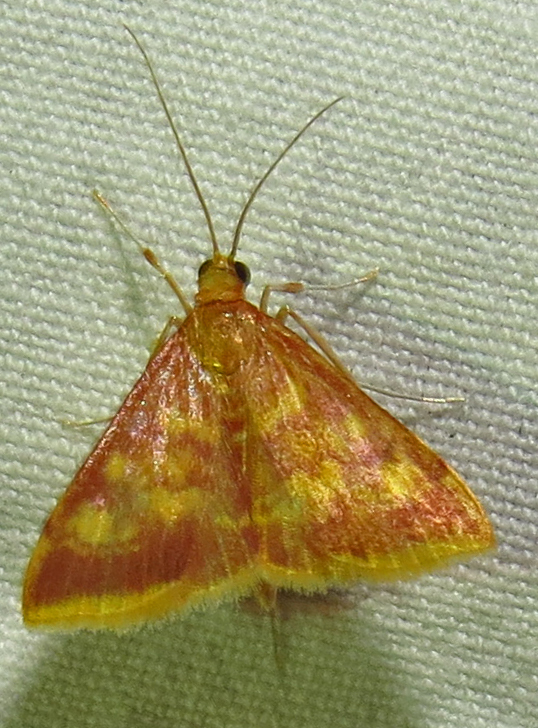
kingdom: Animalia
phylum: Arthropoda
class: Insecta
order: Lepidoptera
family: Crambidae
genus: Pyrausta
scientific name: Pyrausta acrionalis
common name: Mint-loving pyrausta moth
